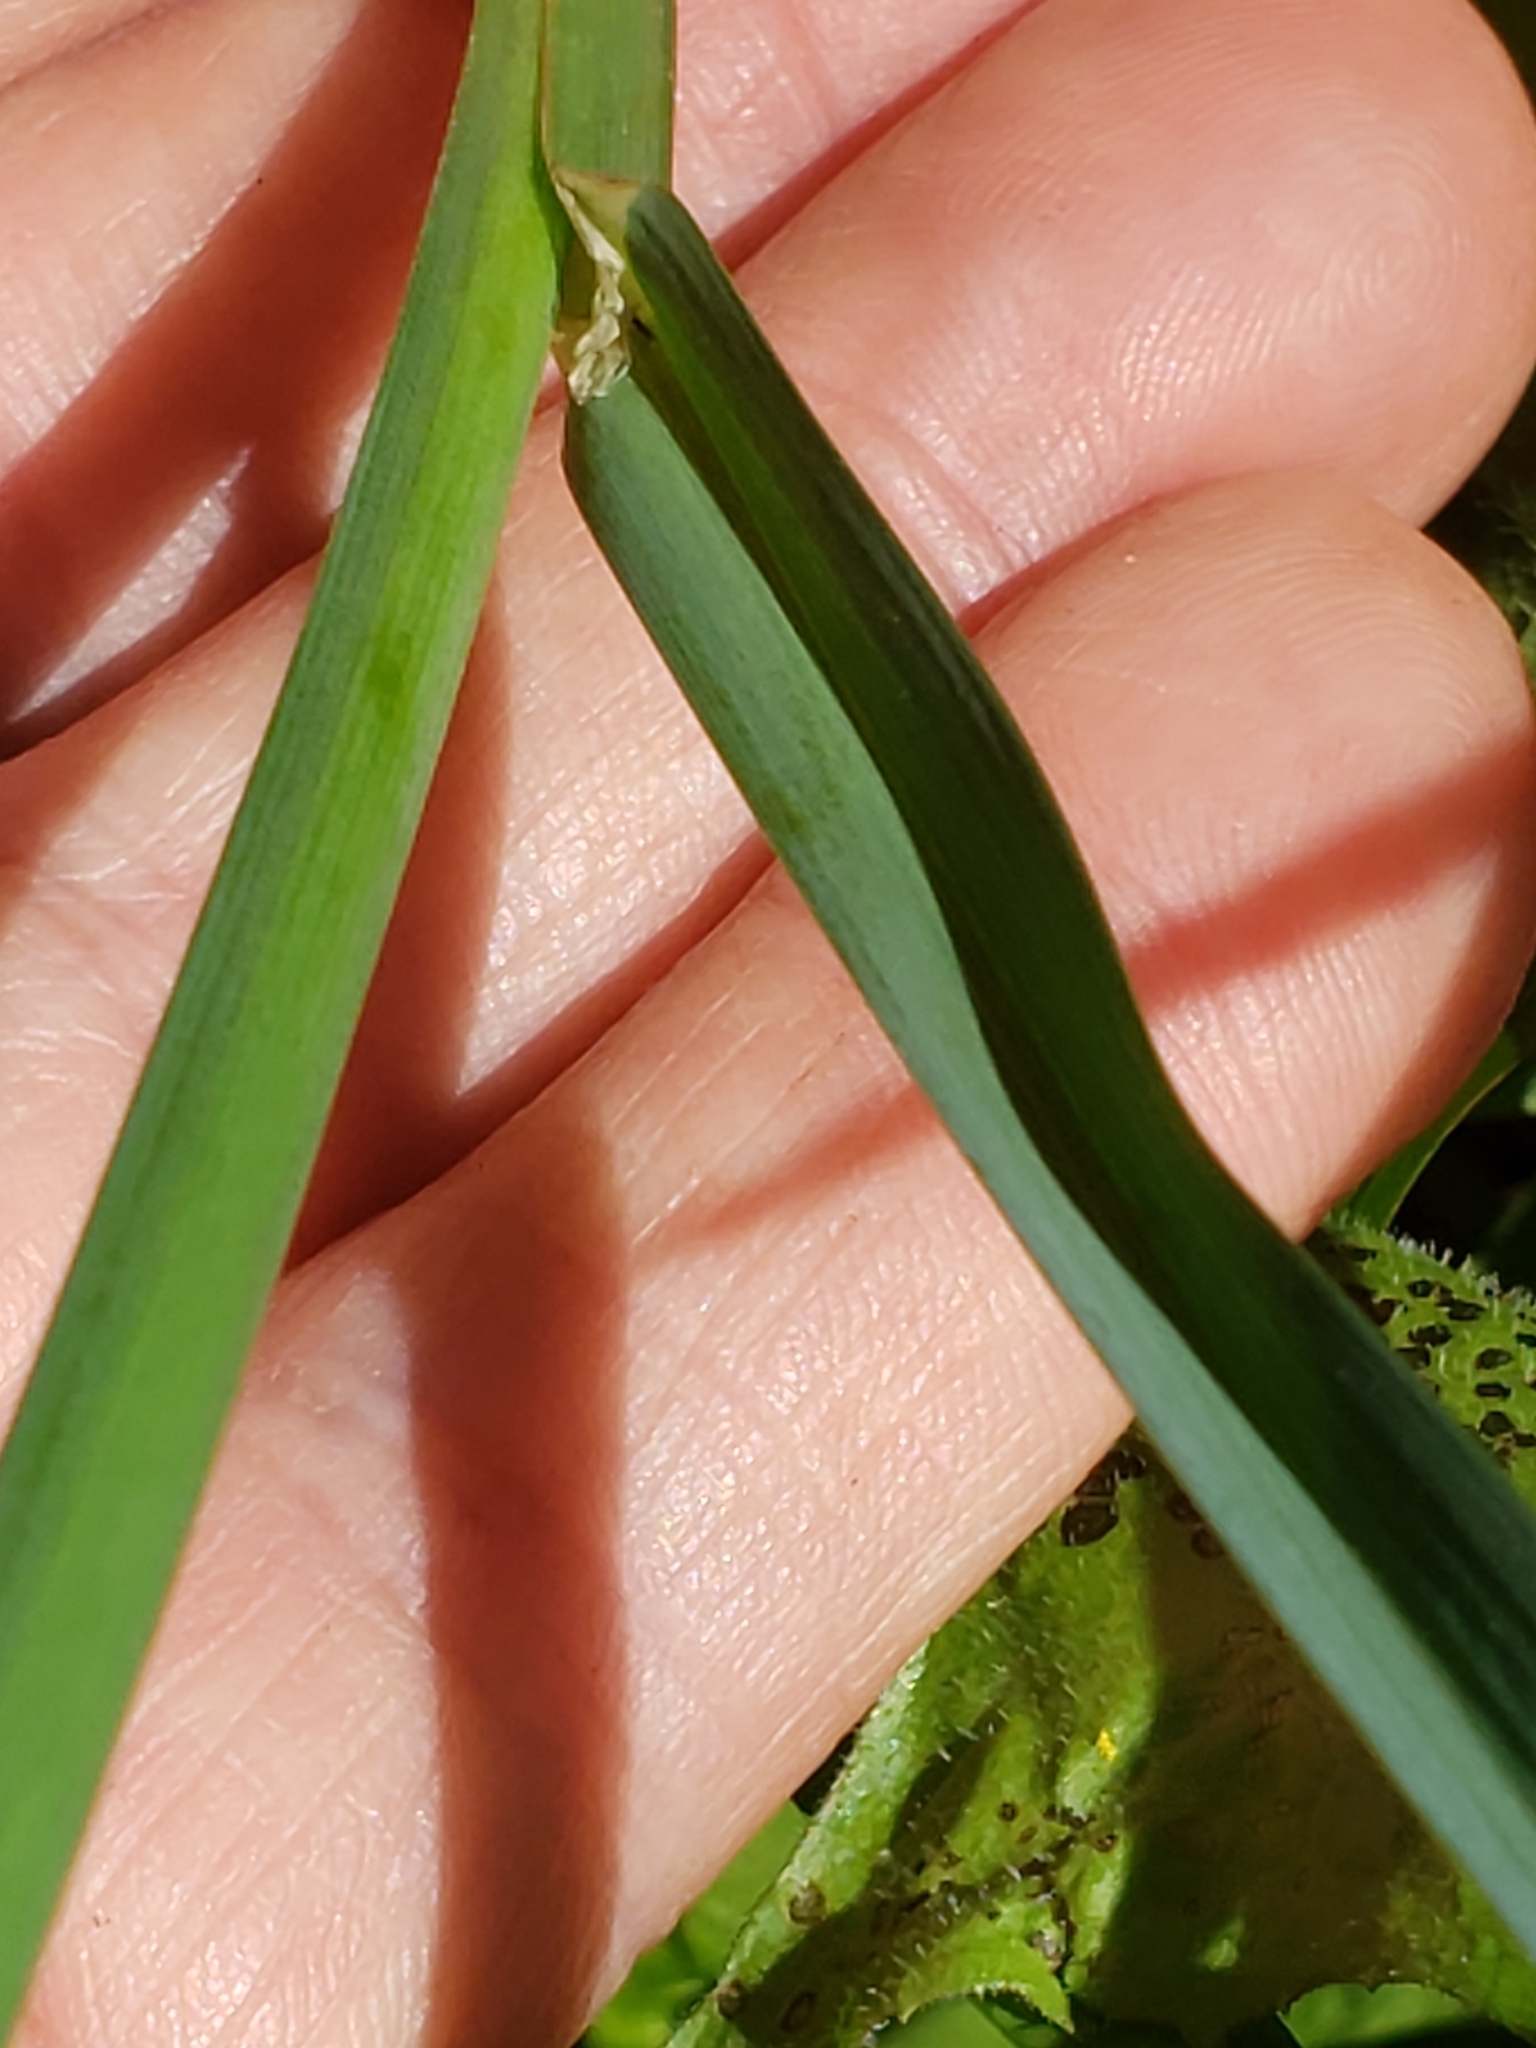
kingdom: Plantae
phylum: Tracheophyta
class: Liliopsida
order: Poales
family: Poaceae
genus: Dactylis
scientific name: Dactylis glomerata
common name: Orchardgrass
